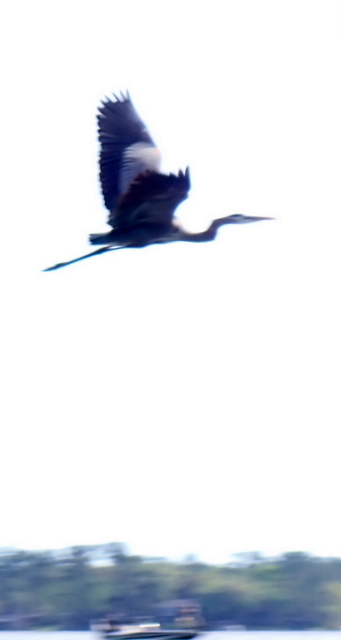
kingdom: Animalia
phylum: Chordata
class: Aves
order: Pelecaniformes
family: Ardeidae
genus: Ardea
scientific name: Ardea herodias
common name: Great blue heron
